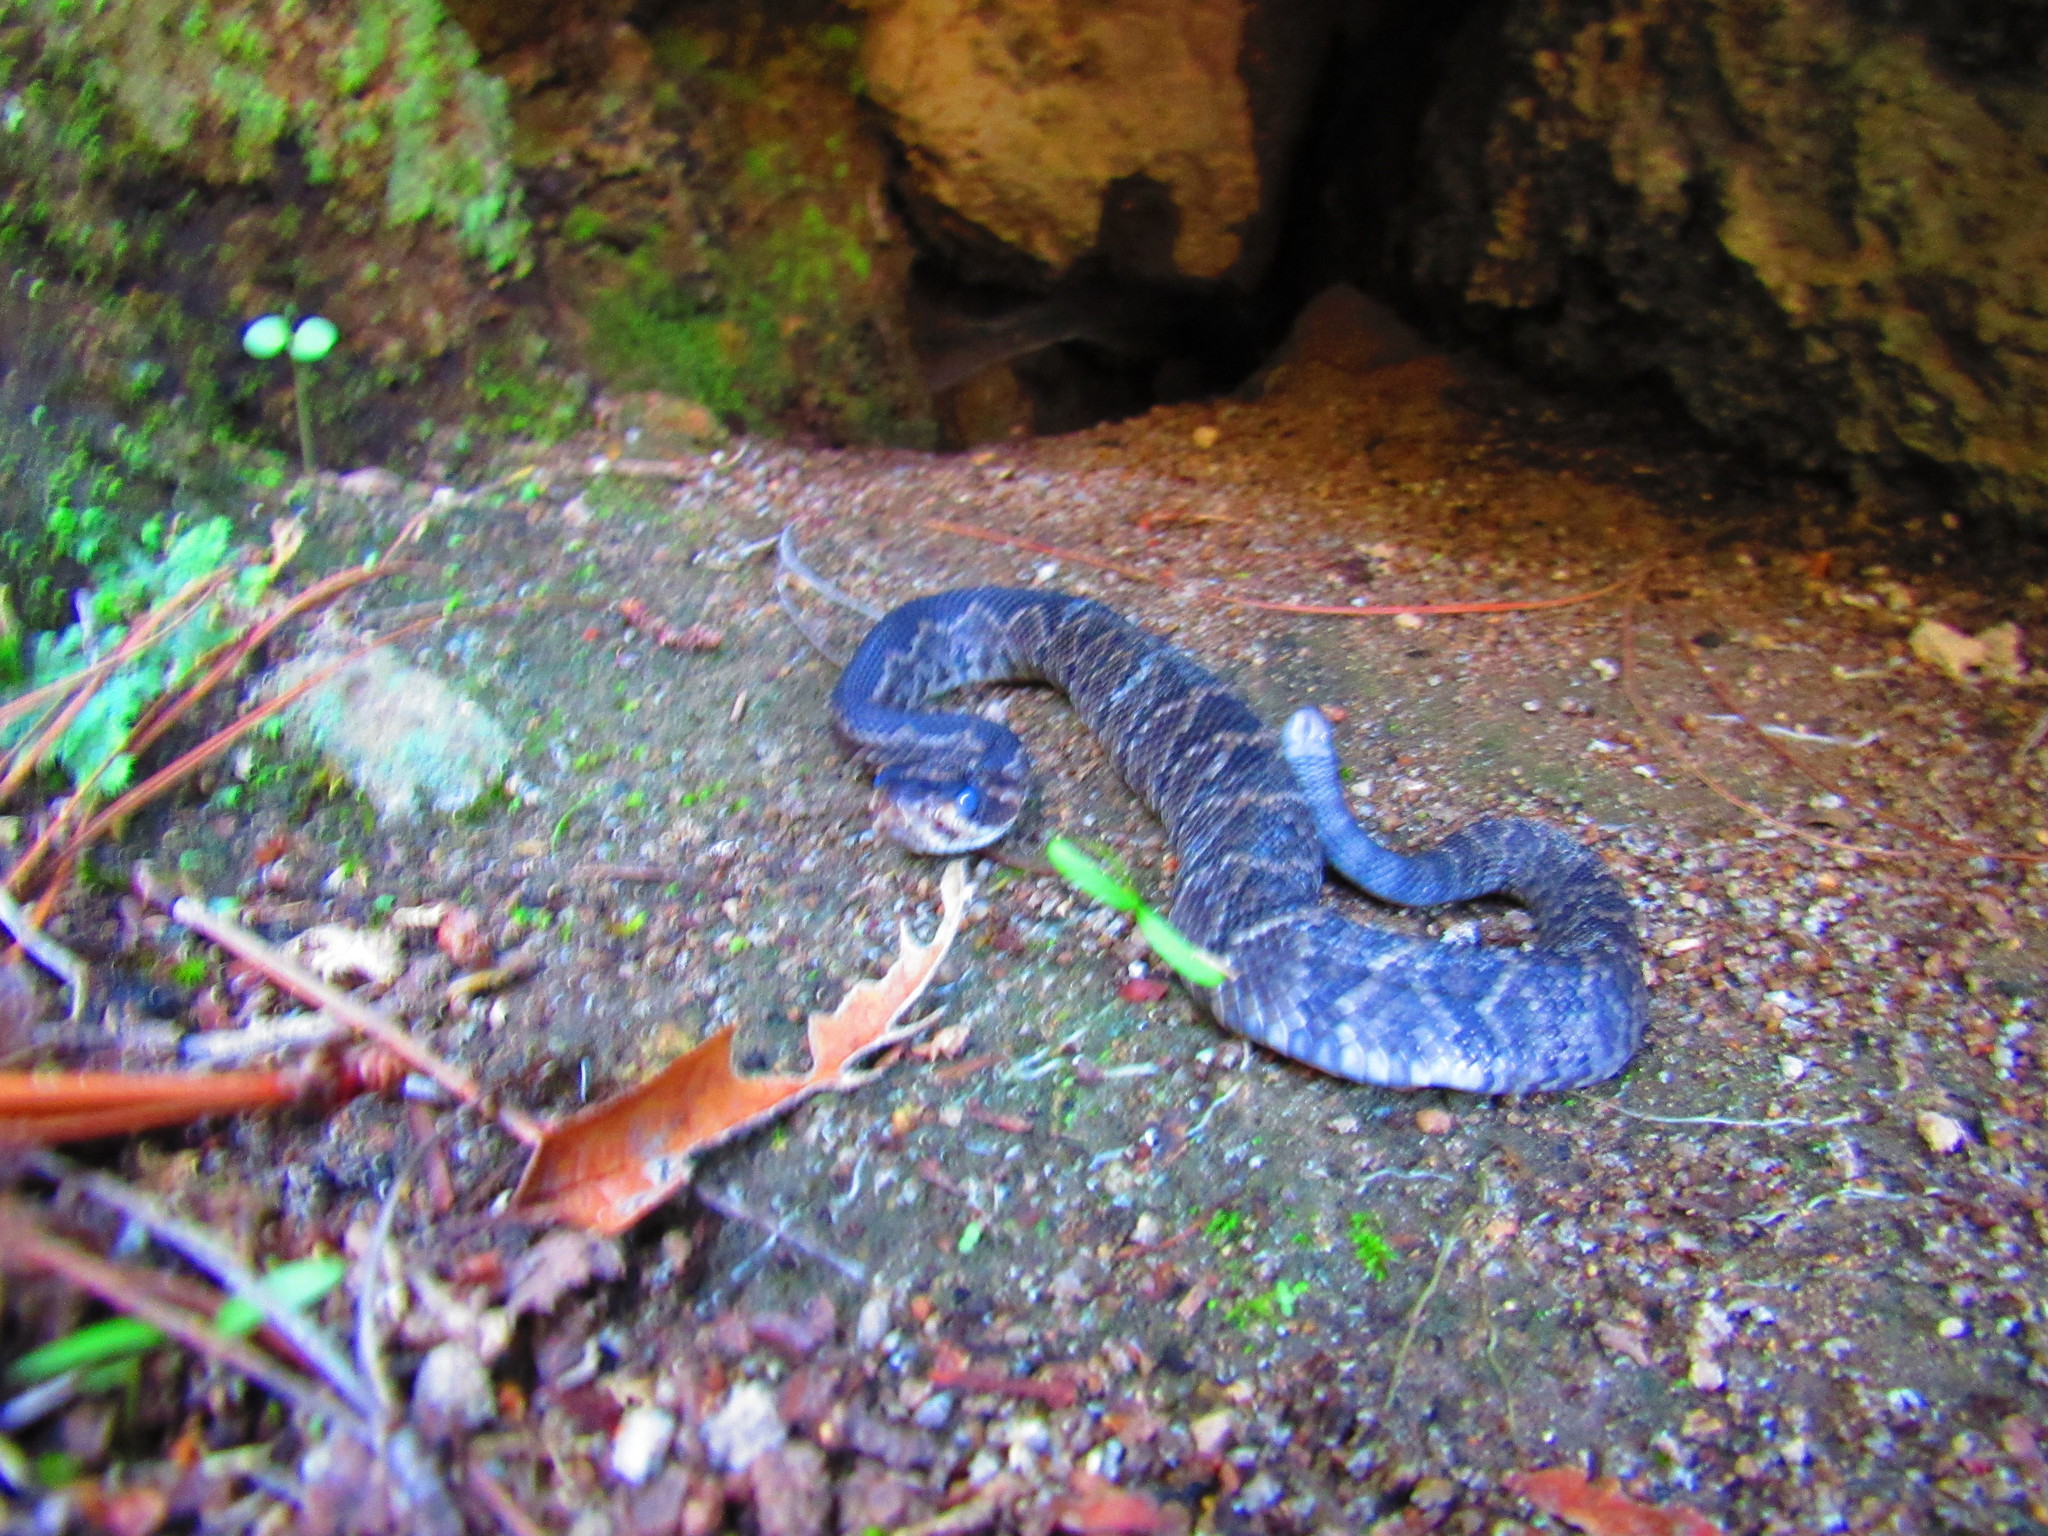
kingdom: Animalia
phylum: Chordata
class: Squamata
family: Viperidae
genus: Crotalus
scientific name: Crotalus molossus
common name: Black tailed rattlesnake
